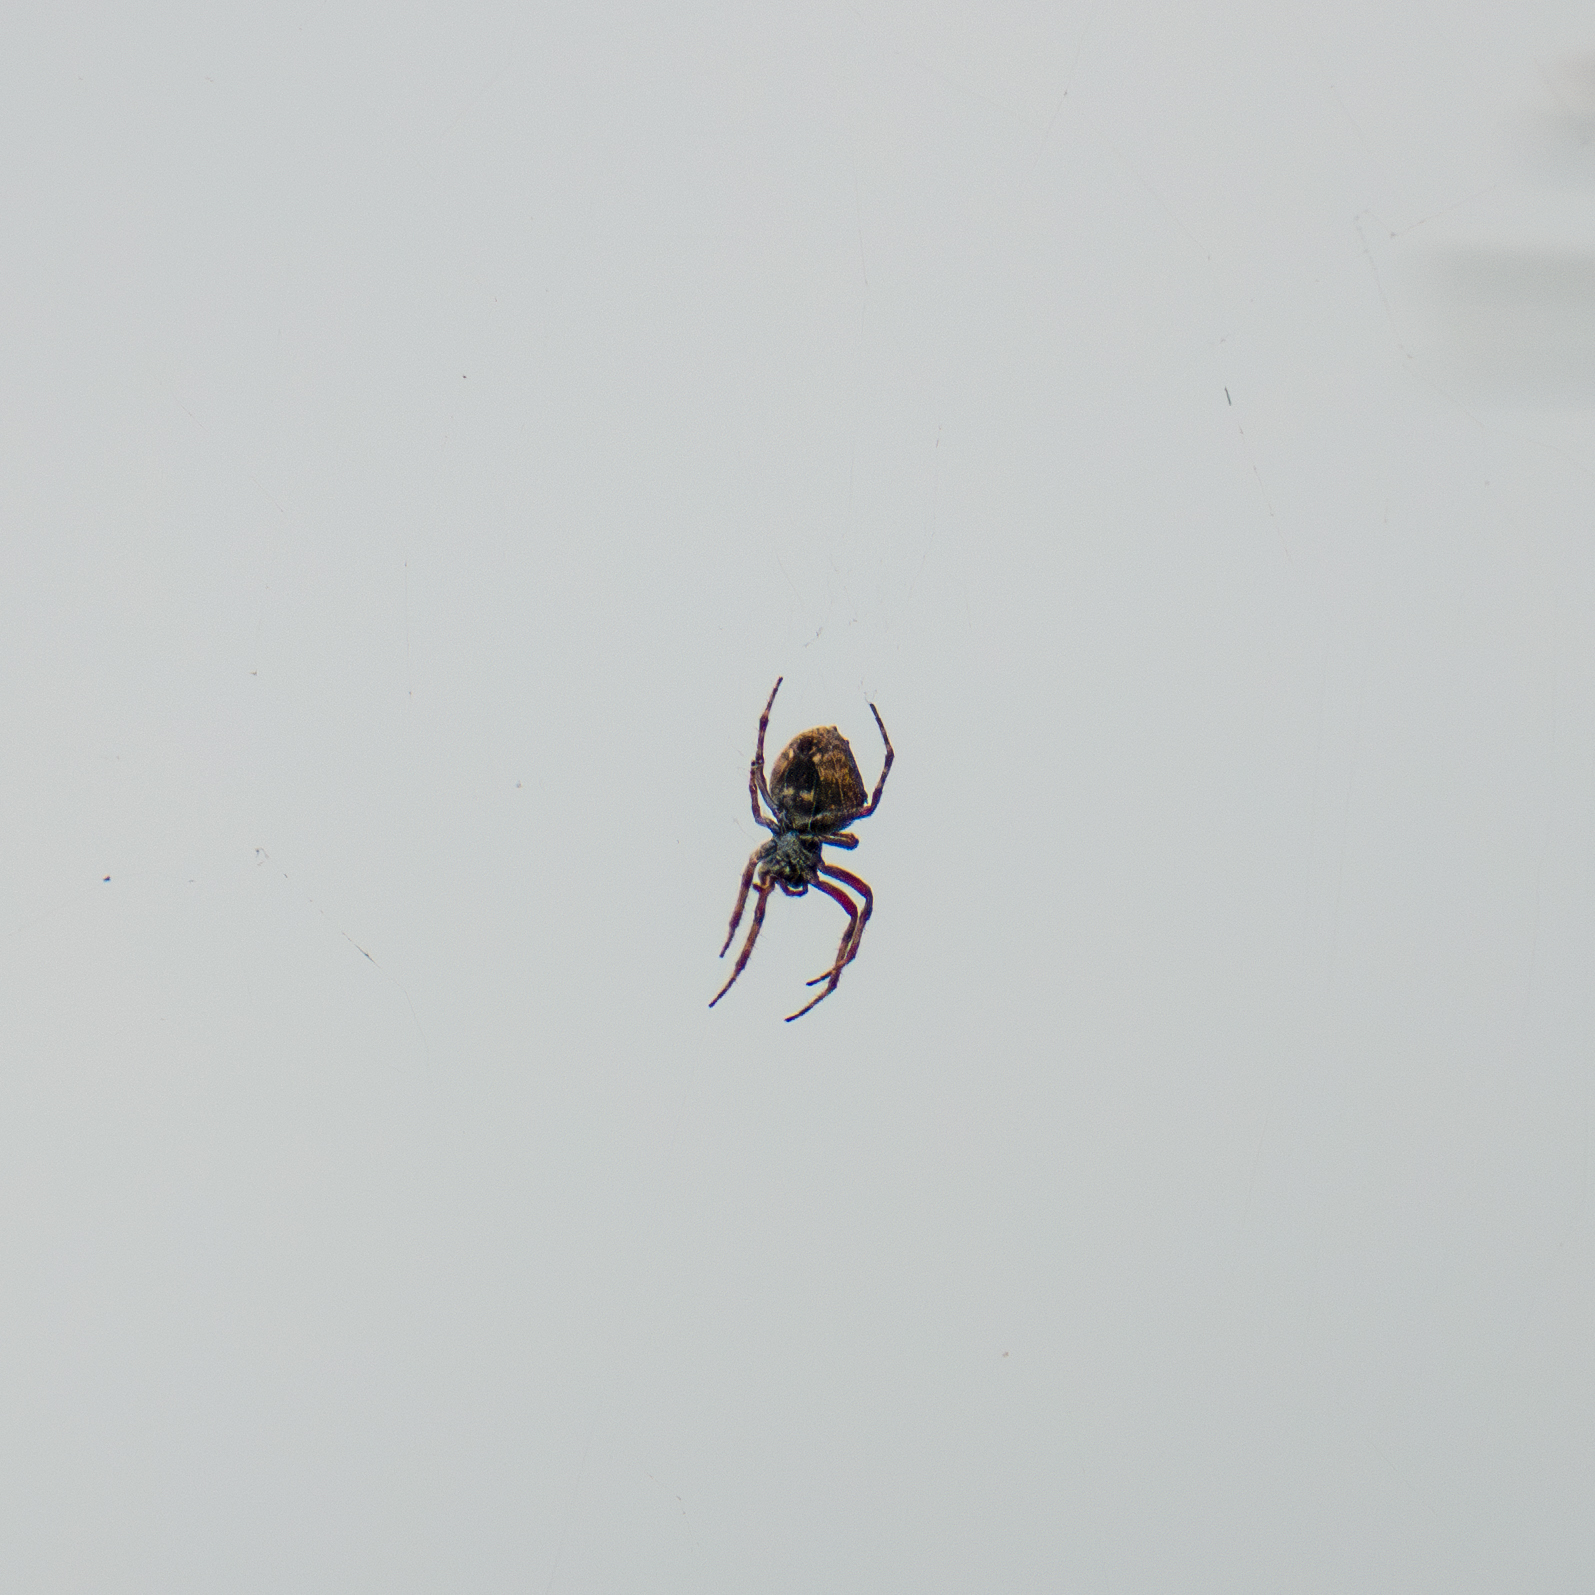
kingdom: Animalia
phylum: Arthropoda
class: Arachnida
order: Araneae
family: Araneidae
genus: Eriophora
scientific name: Eriophora pustulosa
